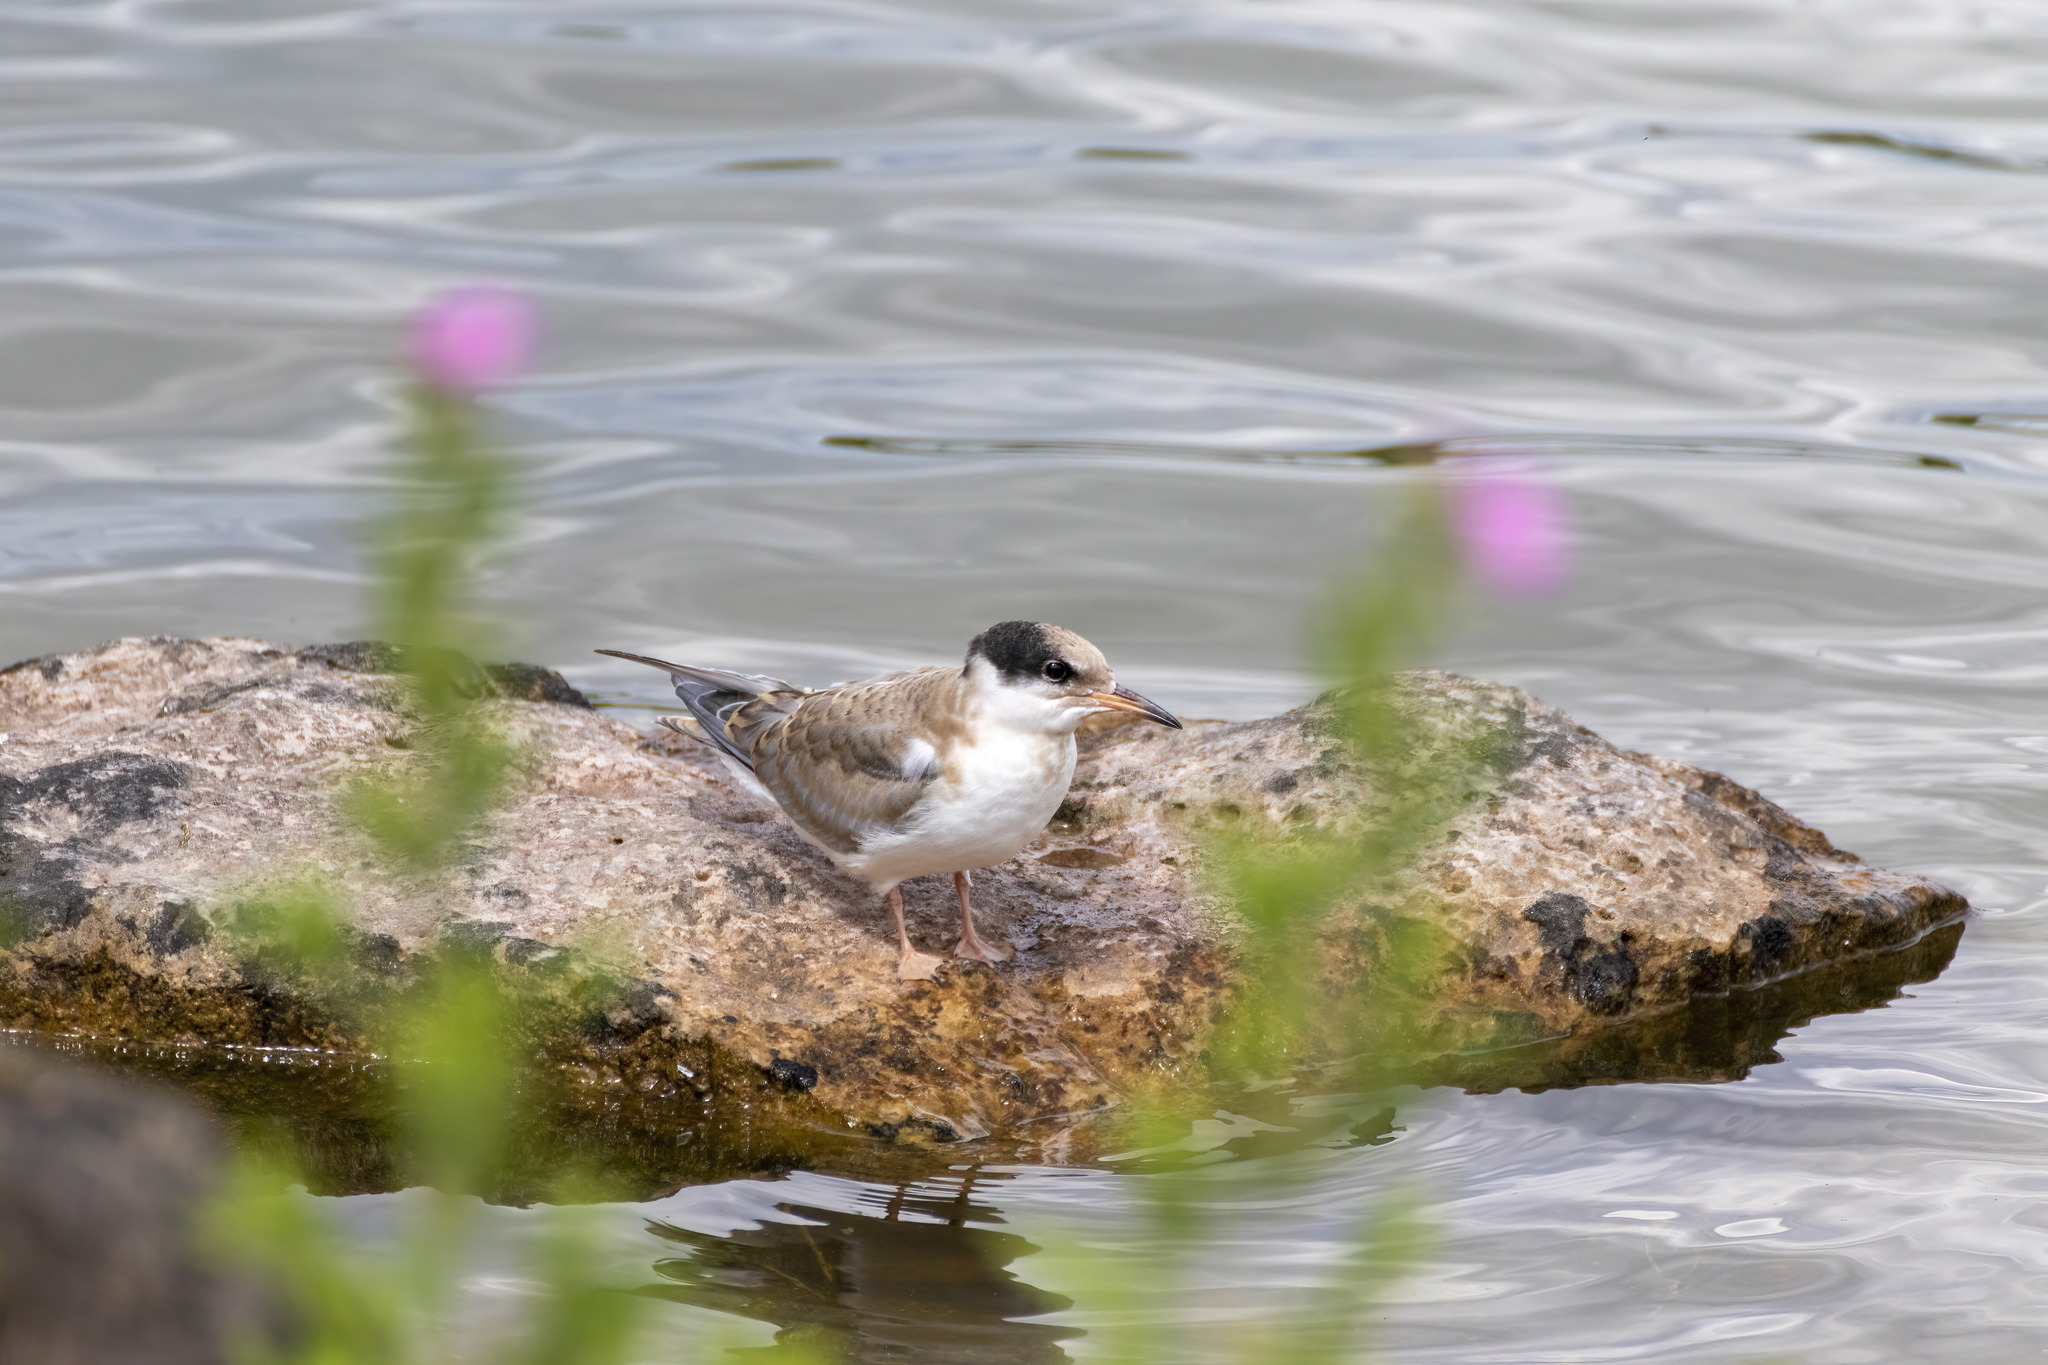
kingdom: Animalia
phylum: Chordata
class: Aves
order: Charadriiformes
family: Laridae
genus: Sterna
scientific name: Sterna hirundo
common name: Common tern
